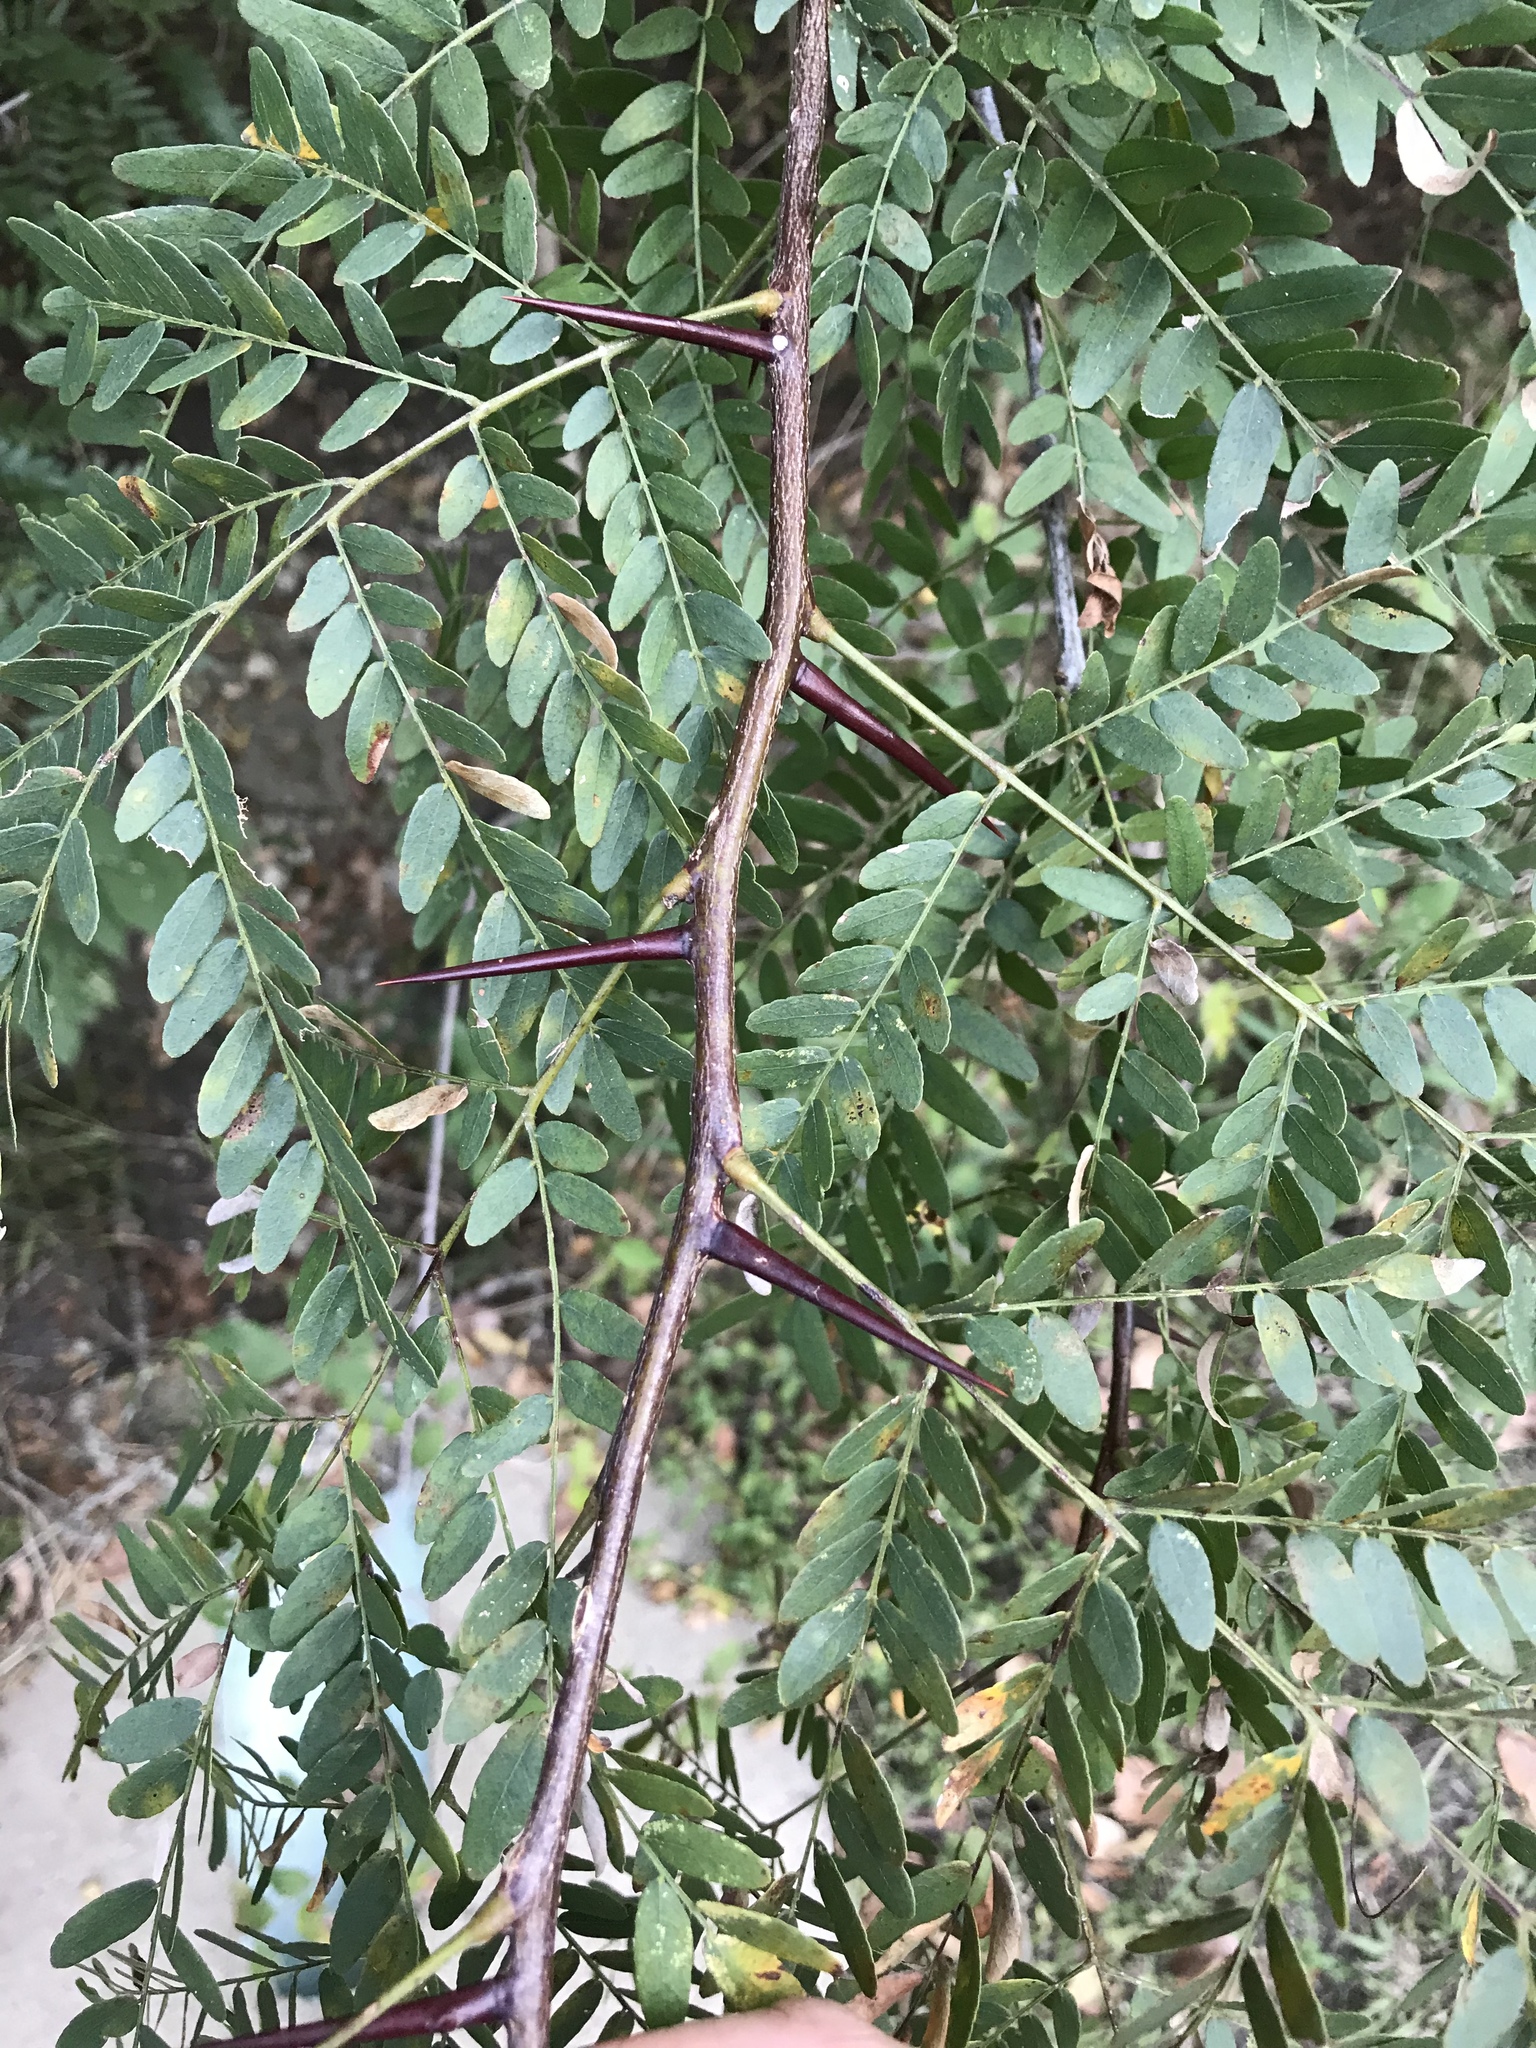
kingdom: Plantae
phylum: Tracheophyta
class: Magnoliopsida
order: Fabales
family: Fabaceae
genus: Gleditsia
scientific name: Gleditsia triacanthos
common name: Common honeylocust
